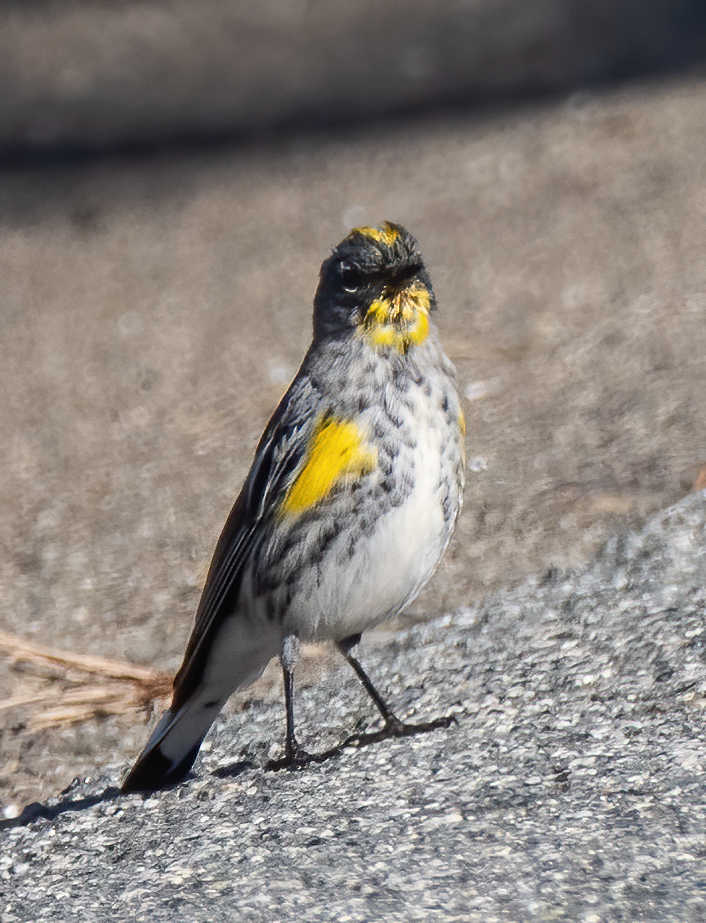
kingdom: Animalia
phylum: Chordata
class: Aves
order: Passeriformes
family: Parulidae
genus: Setophaga
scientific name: Setophaga auduboni
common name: Audubon's warbler
